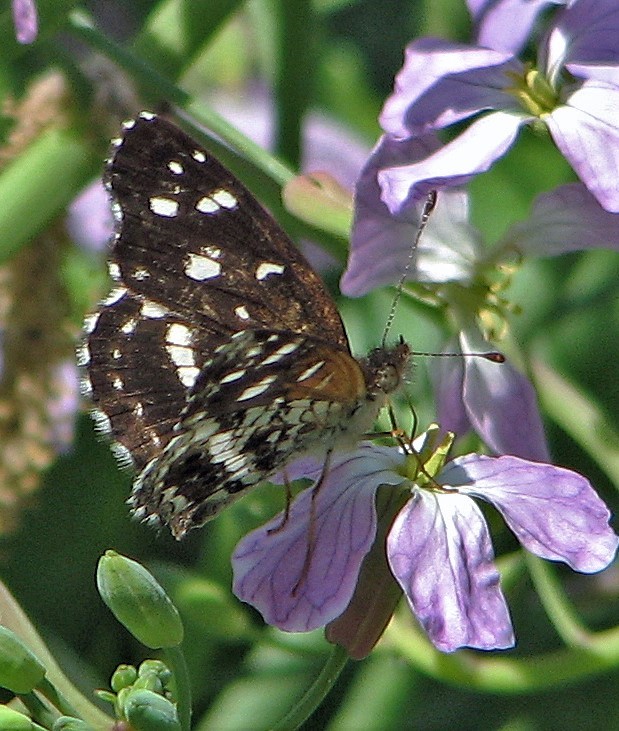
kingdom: Animalia
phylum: Arthropoda
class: Insecta
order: Lepidoptera
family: Nymphalidae
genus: Ortilia
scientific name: Ortilia ithra
